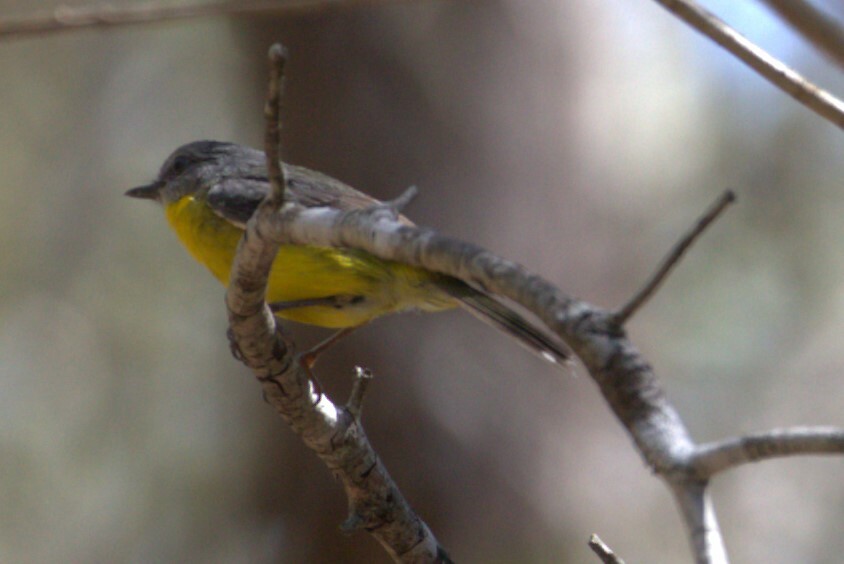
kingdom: Animalia
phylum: Chordata
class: Aves
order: Passeriformes
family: Petroicidae
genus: Eopsaltria
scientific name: Eopsaltria australis
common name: Eastern yellow robin
